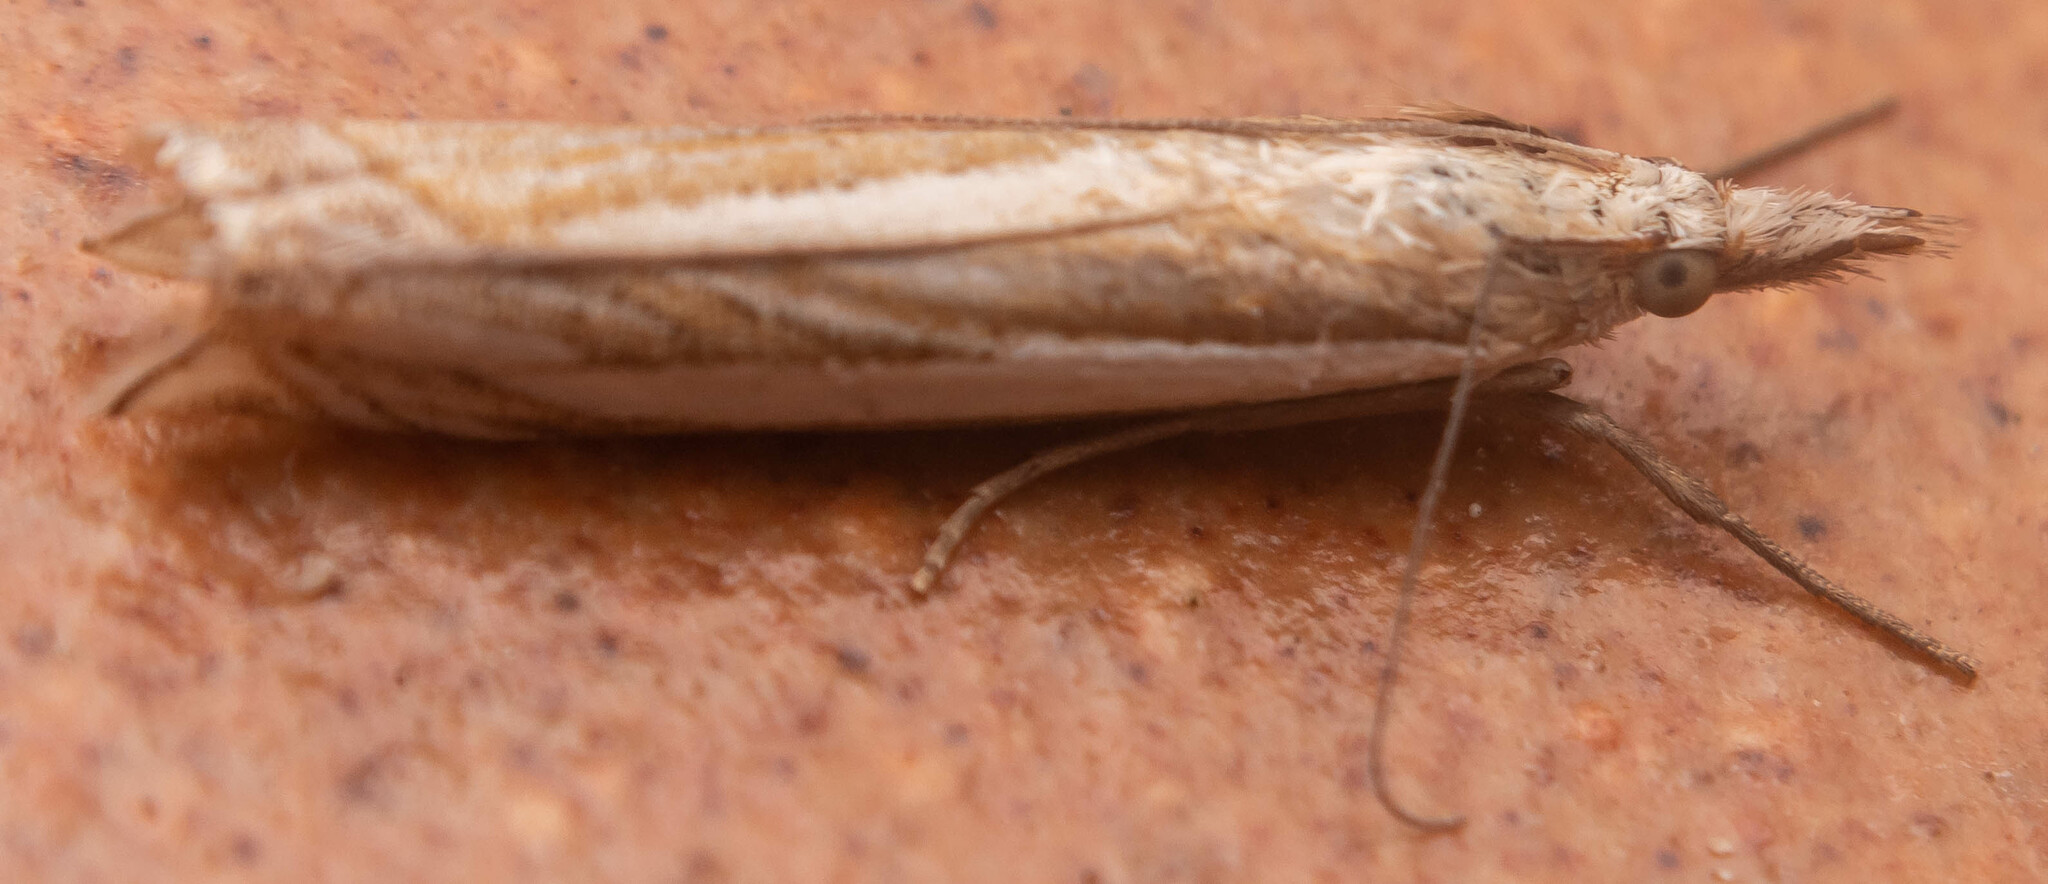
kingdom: Animalia
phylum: Arthropoda
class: Insecta
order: Lepidoptera
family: Crambidae
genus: Crambus
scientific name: Crambus pascuella
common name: Inlaid grass-veneer
